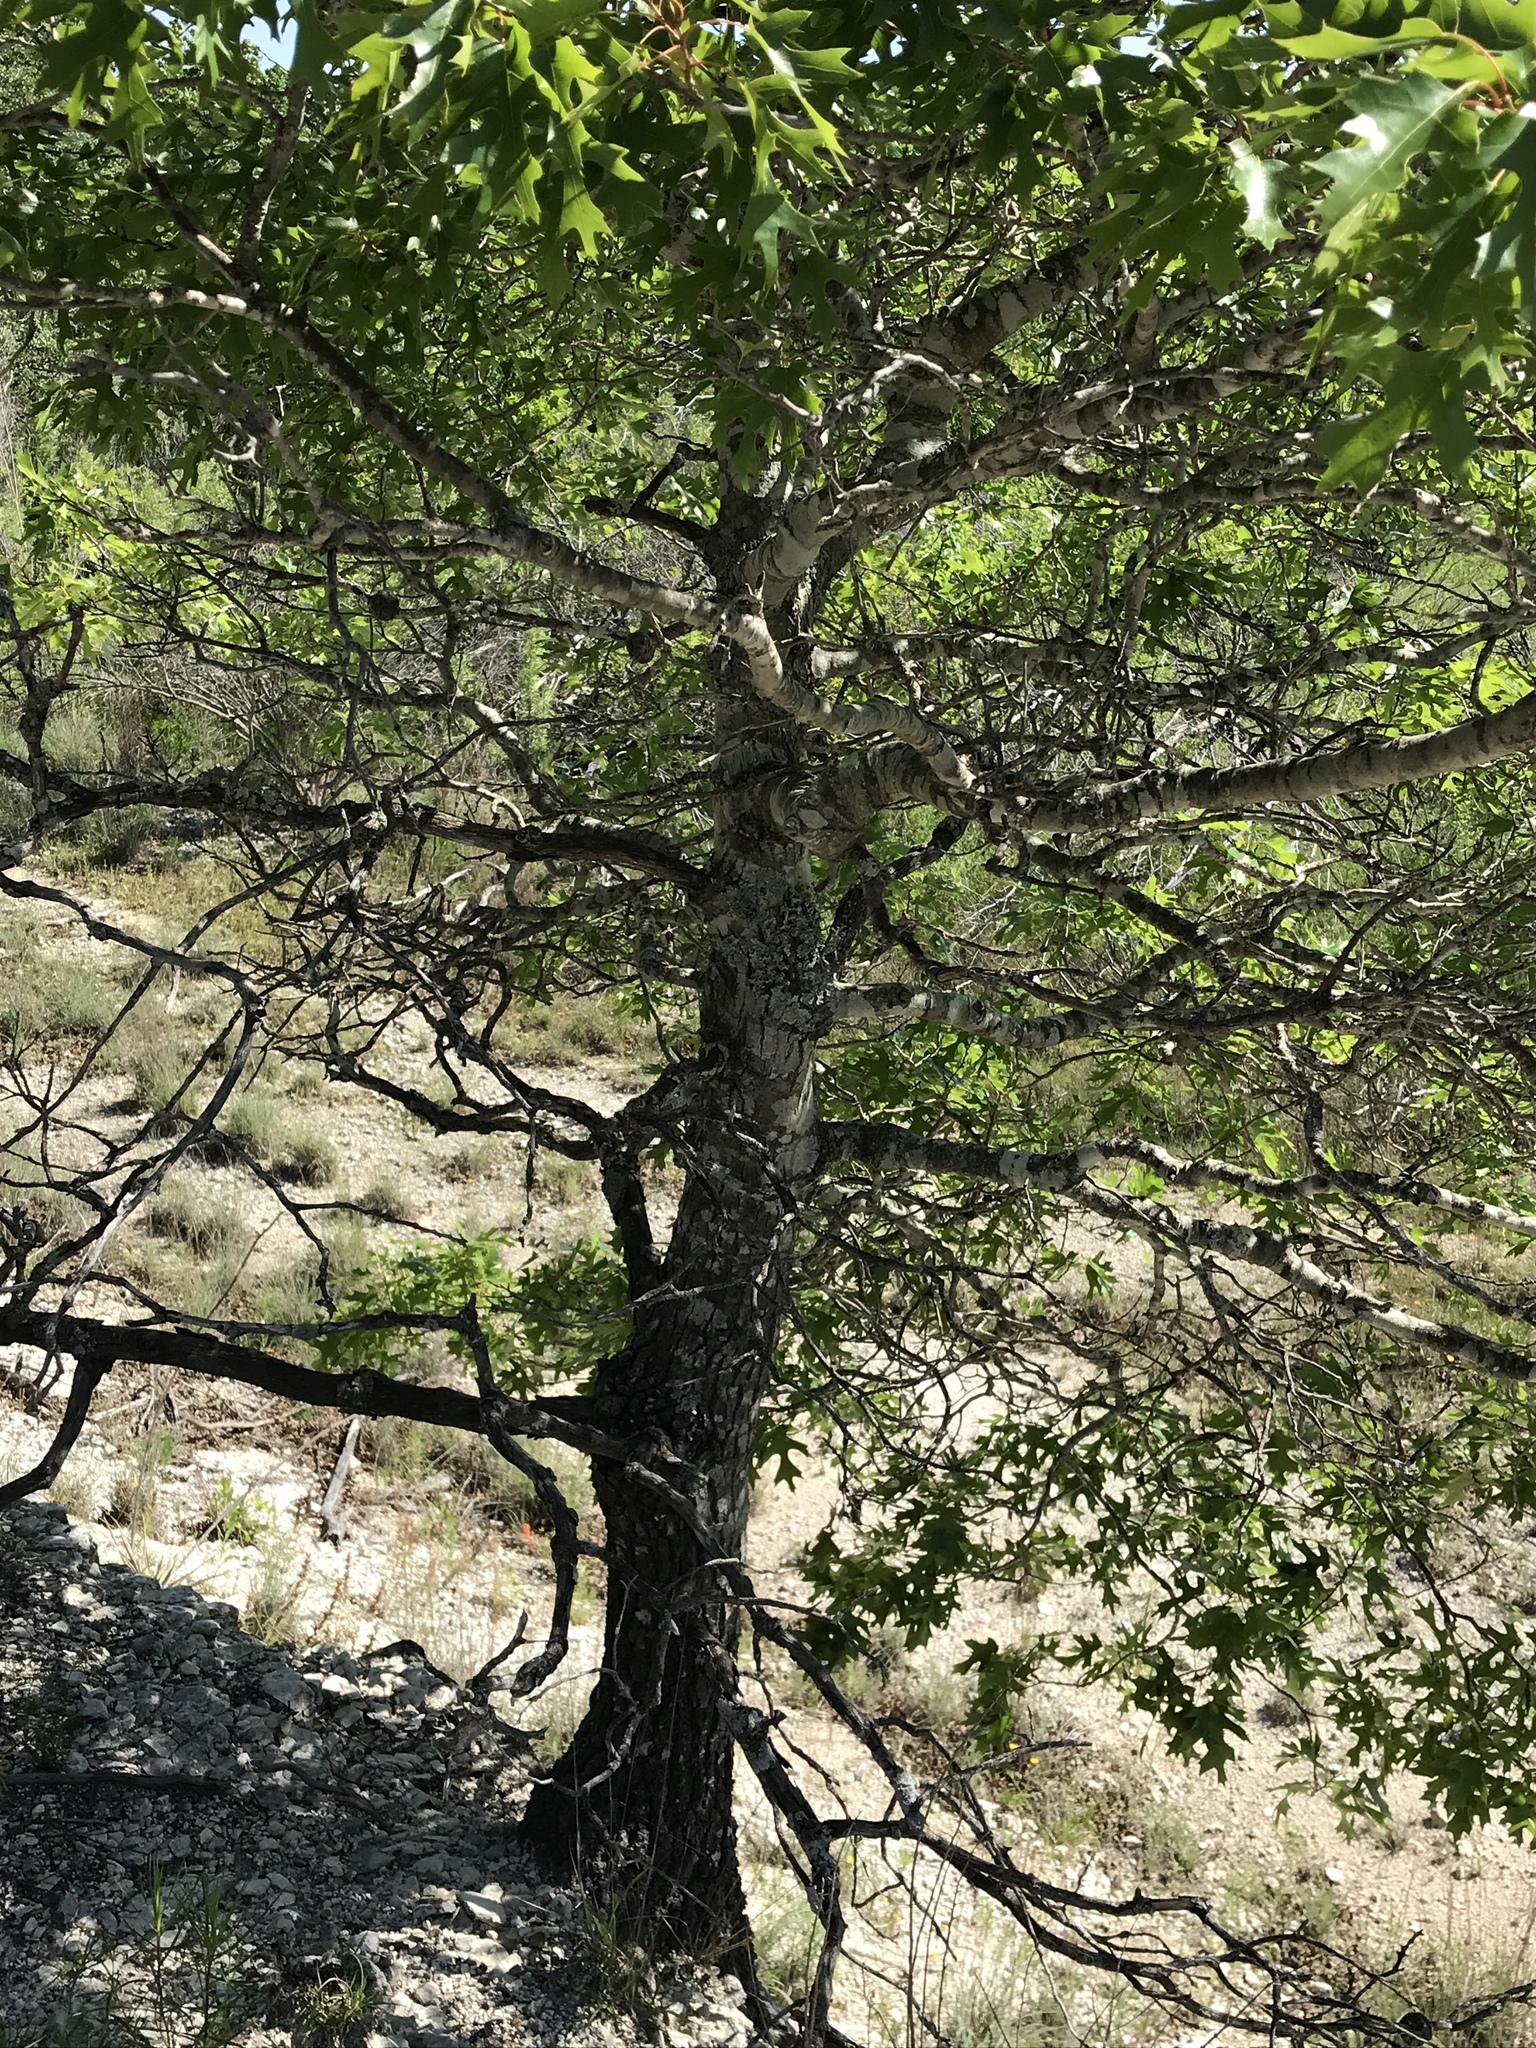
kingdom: Plantae
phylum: Tracheophyta
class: Magnoliopsida
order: Fagales
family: Fagaceae
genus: Quercus
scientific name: Quercus buckleyi
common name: Buckley oak
